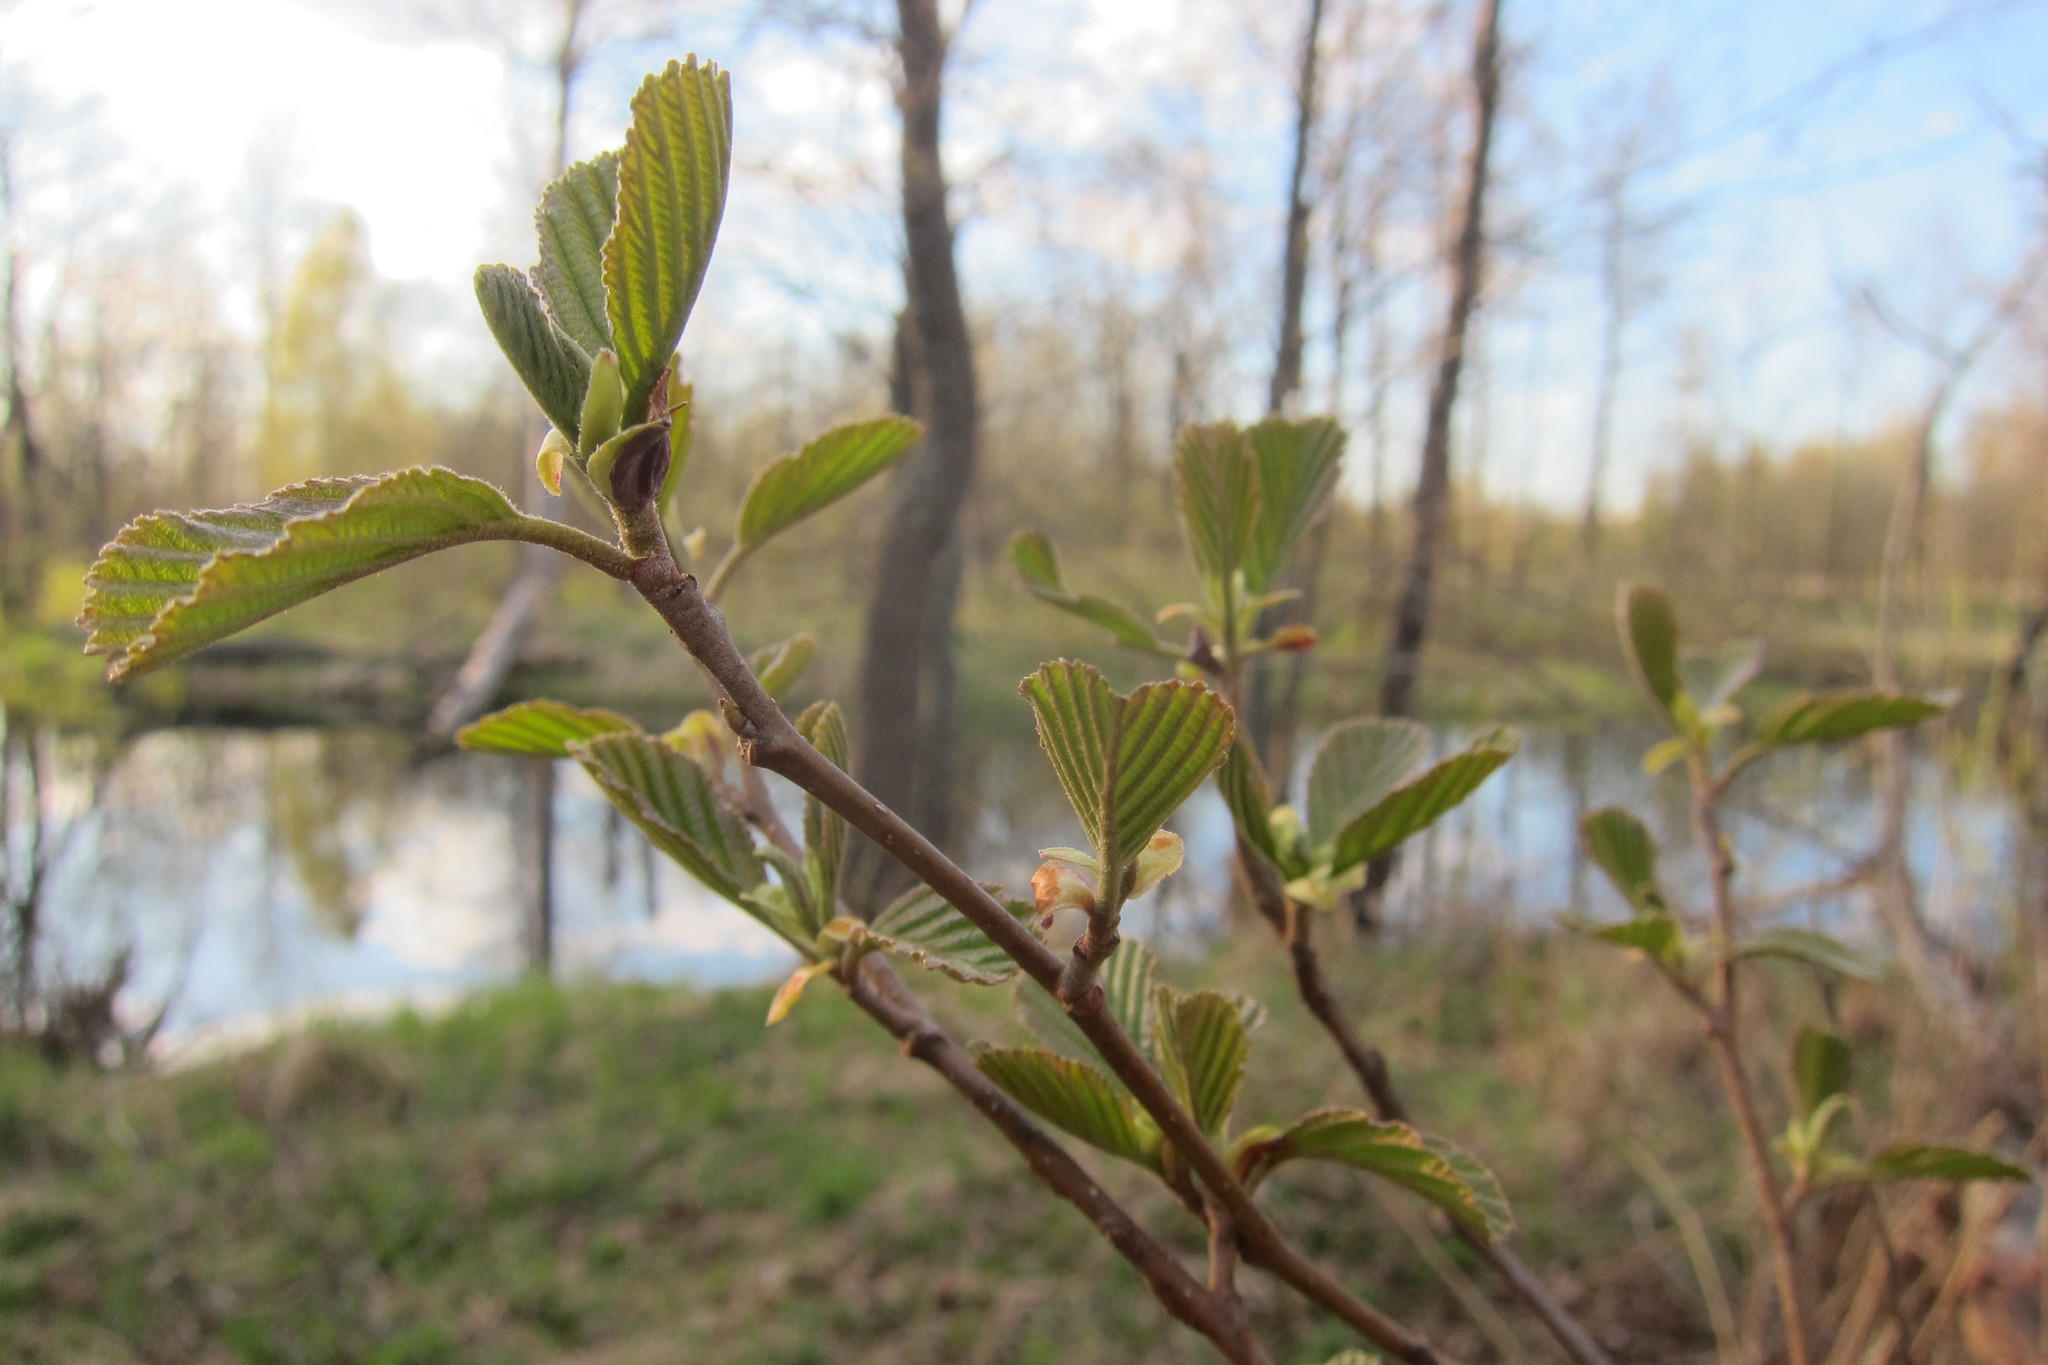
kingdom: Plantae
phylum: Tracheophyta
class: Magnoliopsida
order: Fagales
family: Betulaceae
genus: Alnus
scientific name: Alnus glutinosa
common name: Black alder
